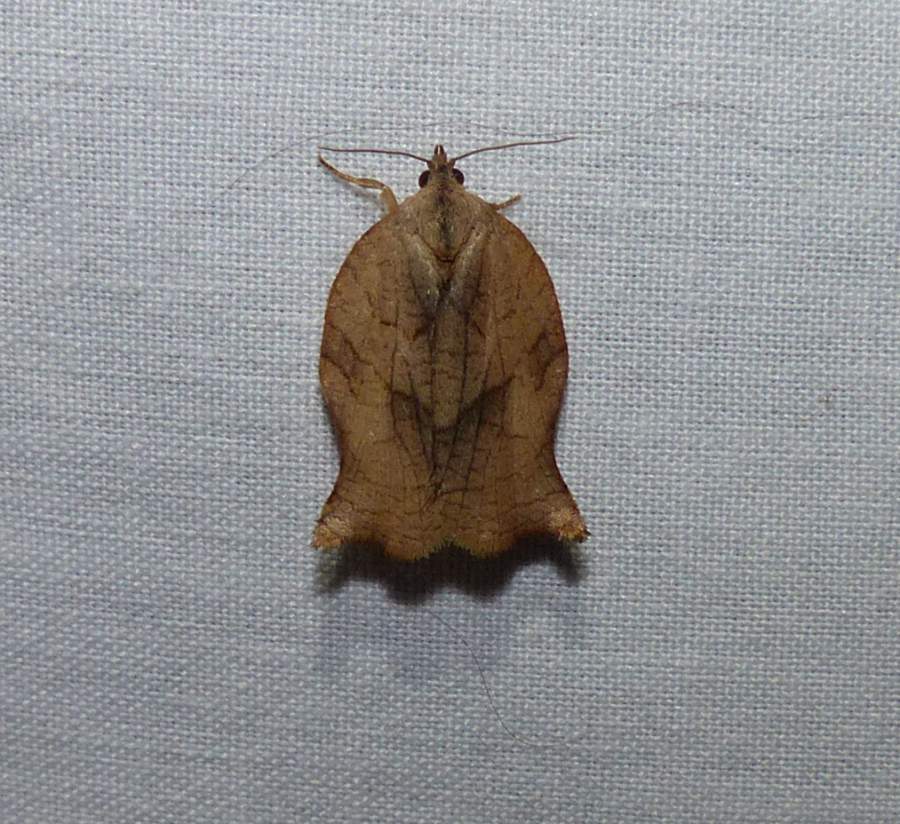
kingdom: Animalia
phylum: Arthropoda
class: Insecta
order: Lepidoptera
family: Tortricidae
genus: Archips
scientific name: Archips purpurana
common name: Omnivorous leafroller
